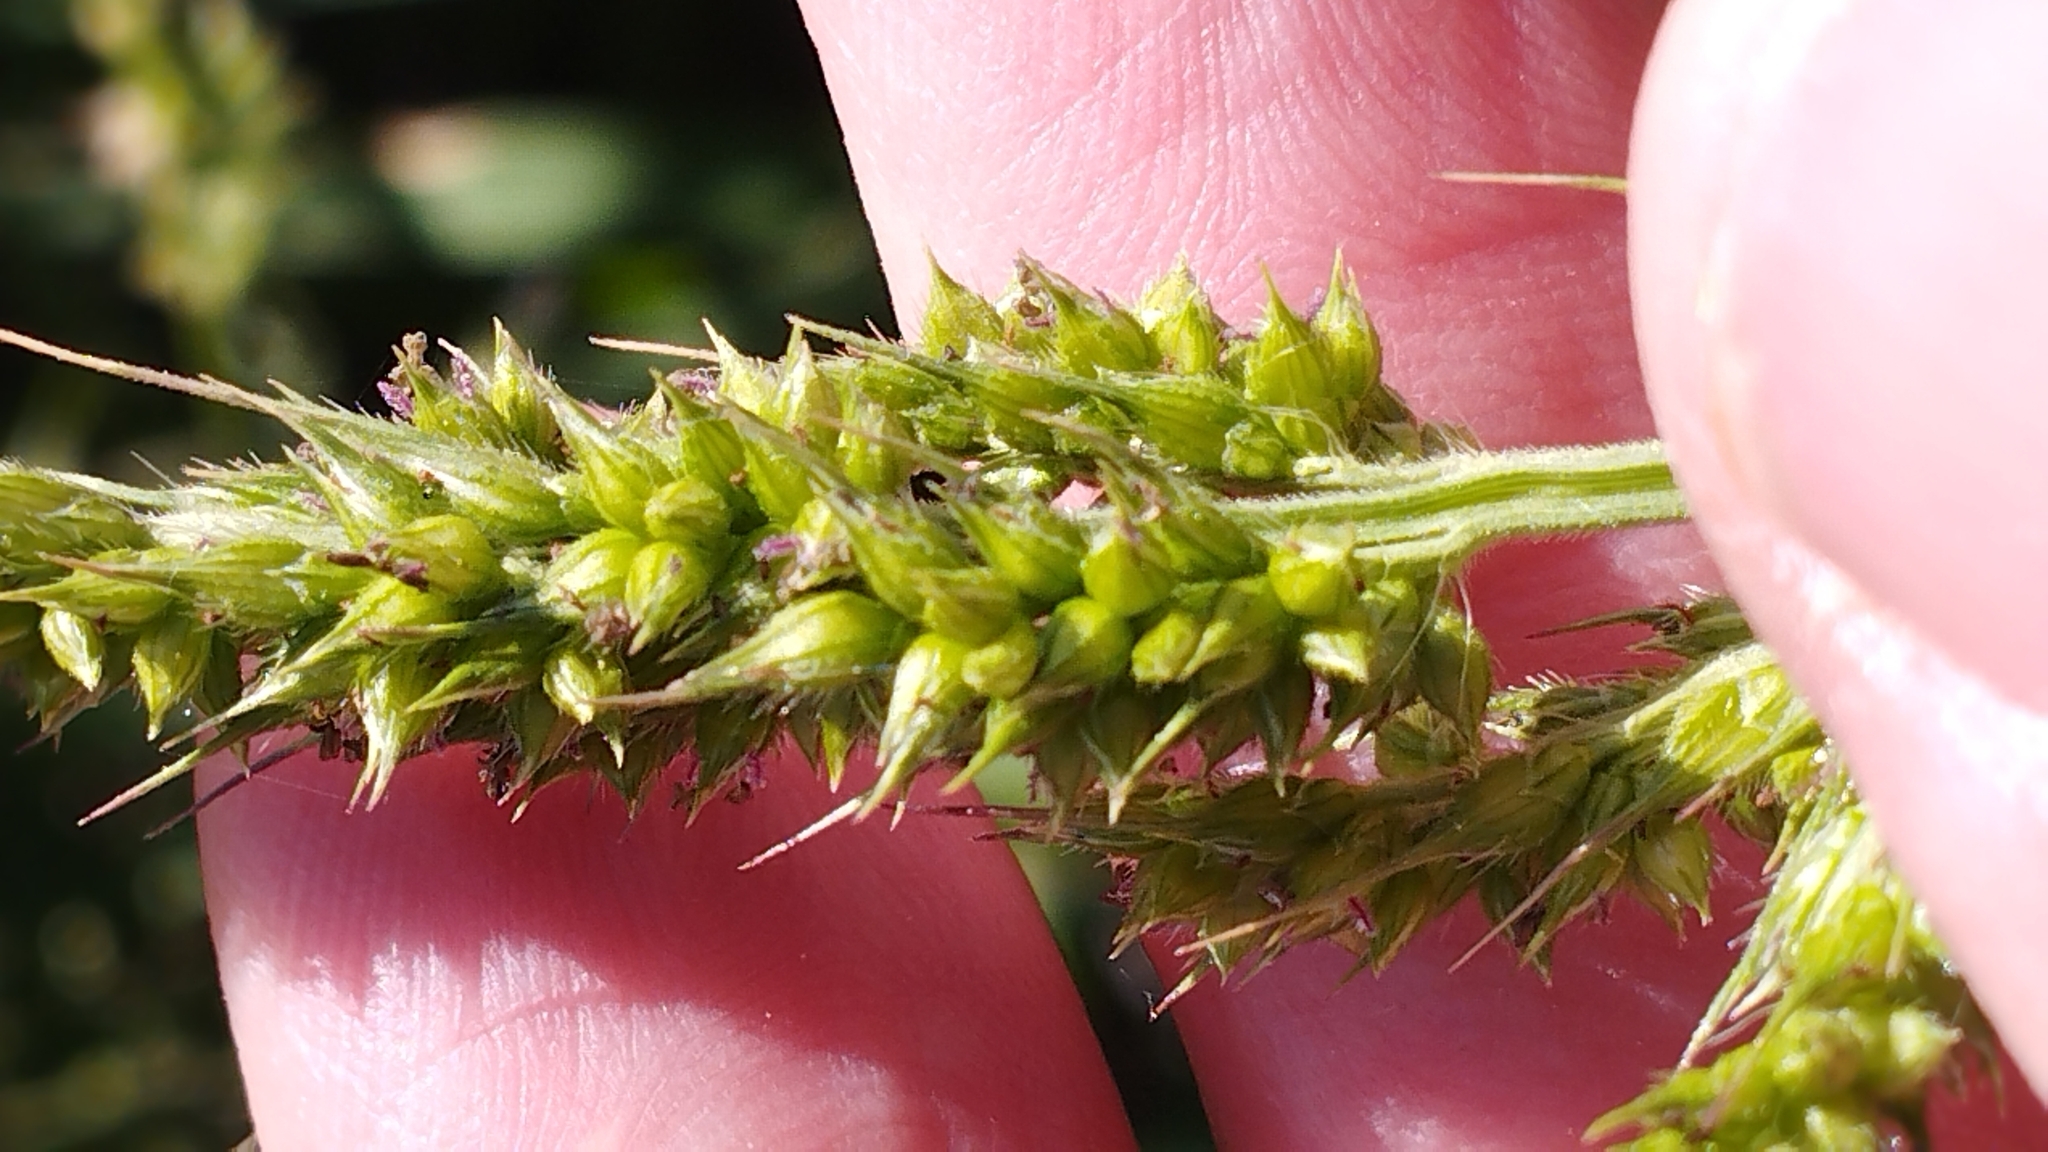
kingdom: Plantae
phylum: Tracheophyta
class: Liliopsida
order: Poales
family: Poaceae
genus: Echinochloa
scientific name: Echinochloa crus-galli
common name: Cockspur
